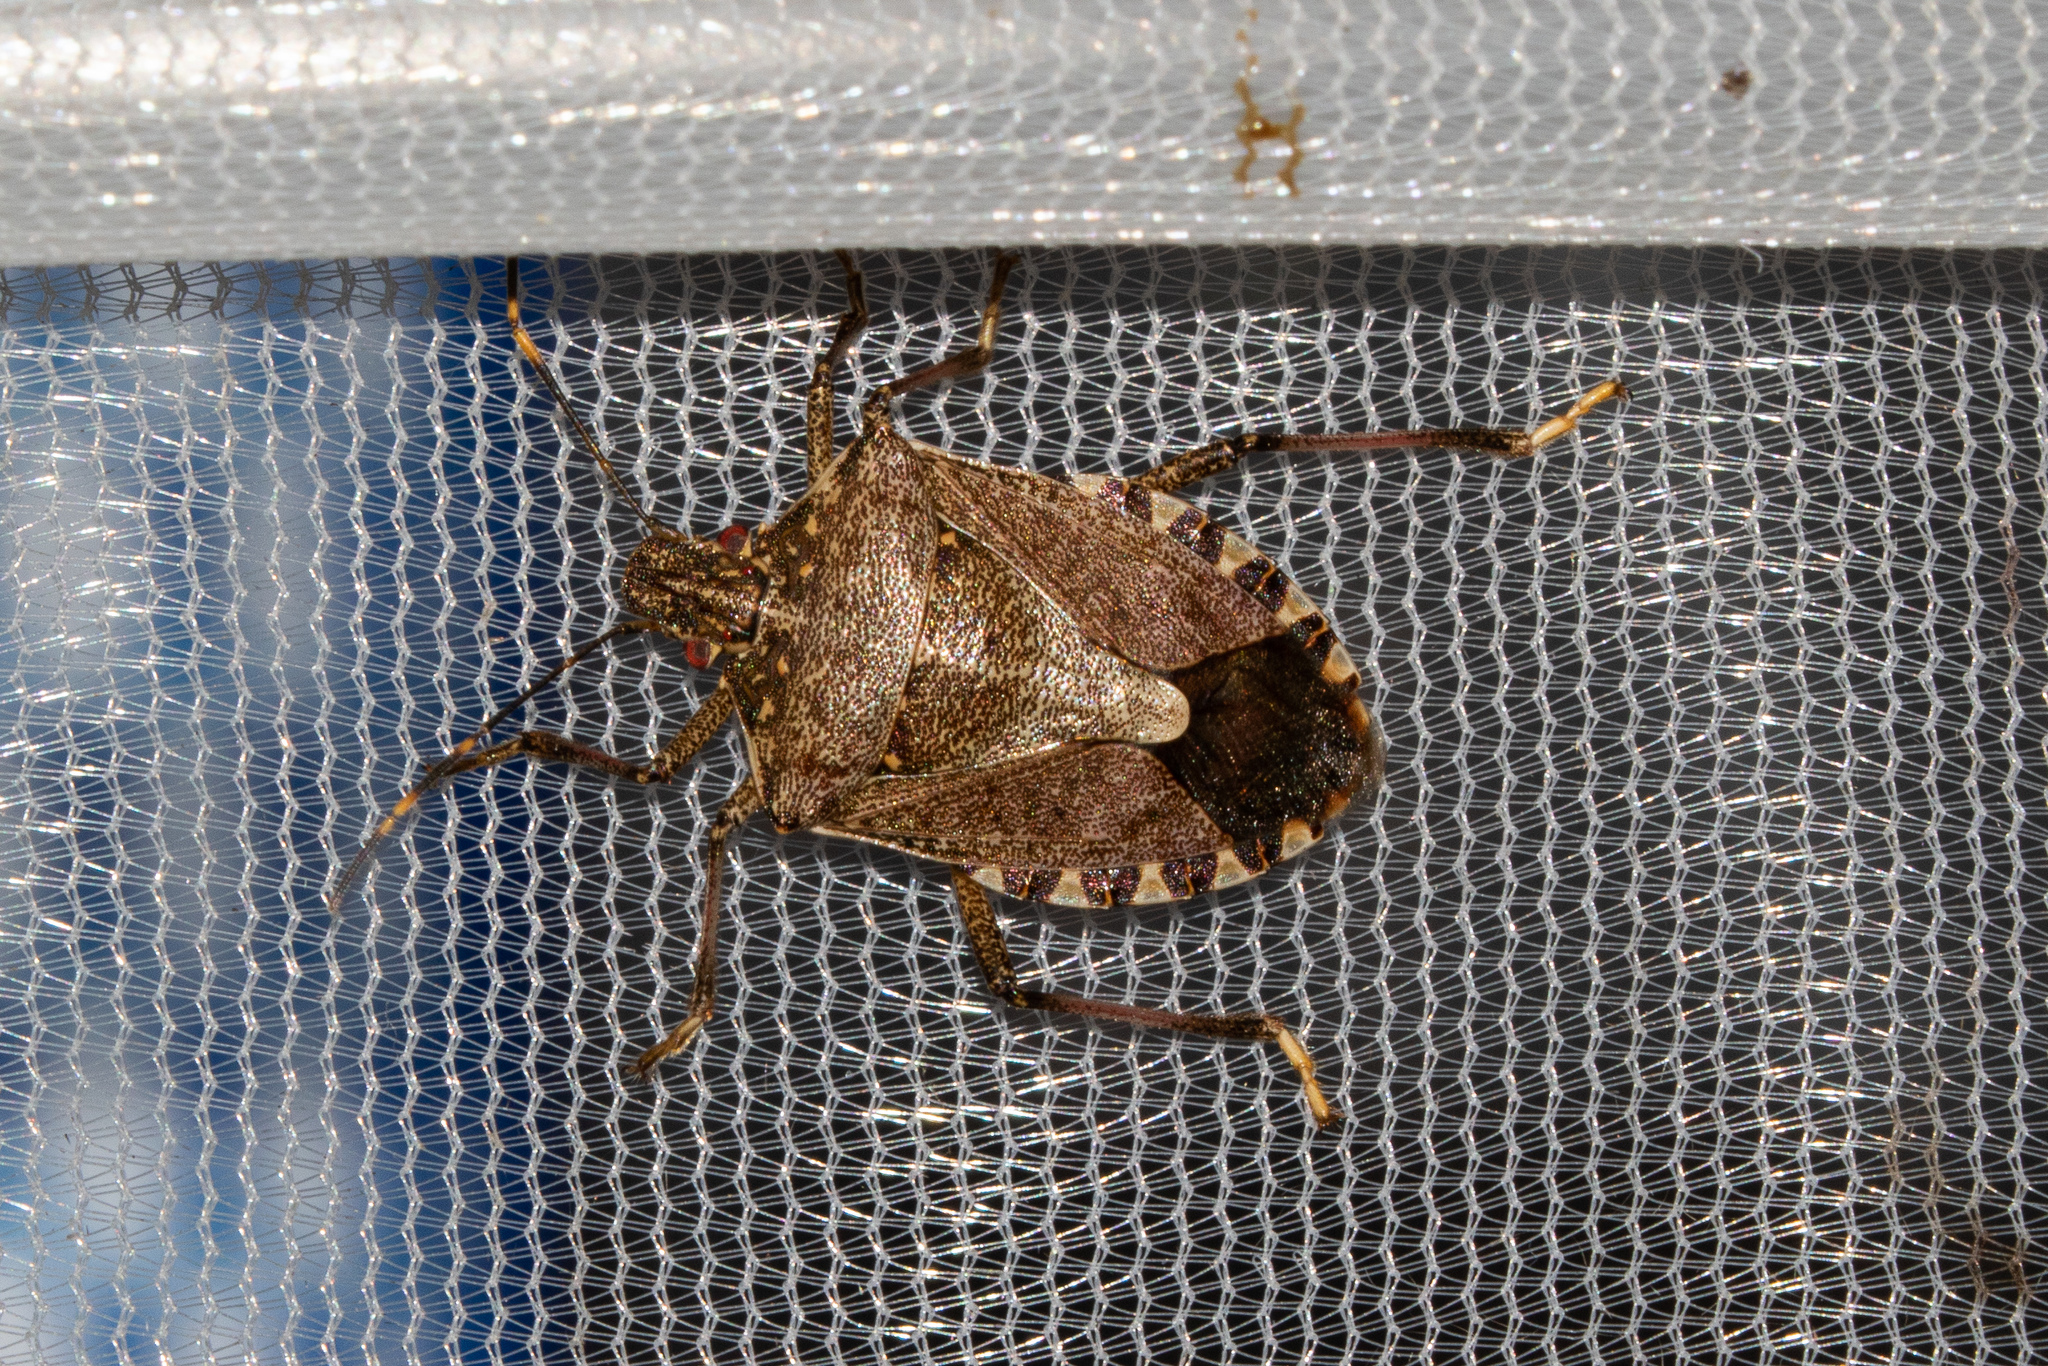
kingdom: Animalia
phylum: Arthropoda
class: Insecta
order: Hemiptera
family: Pentatomidae
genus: Halyomorpha
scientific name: Halyomorpha halys
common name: Brown marmorated stink bug
